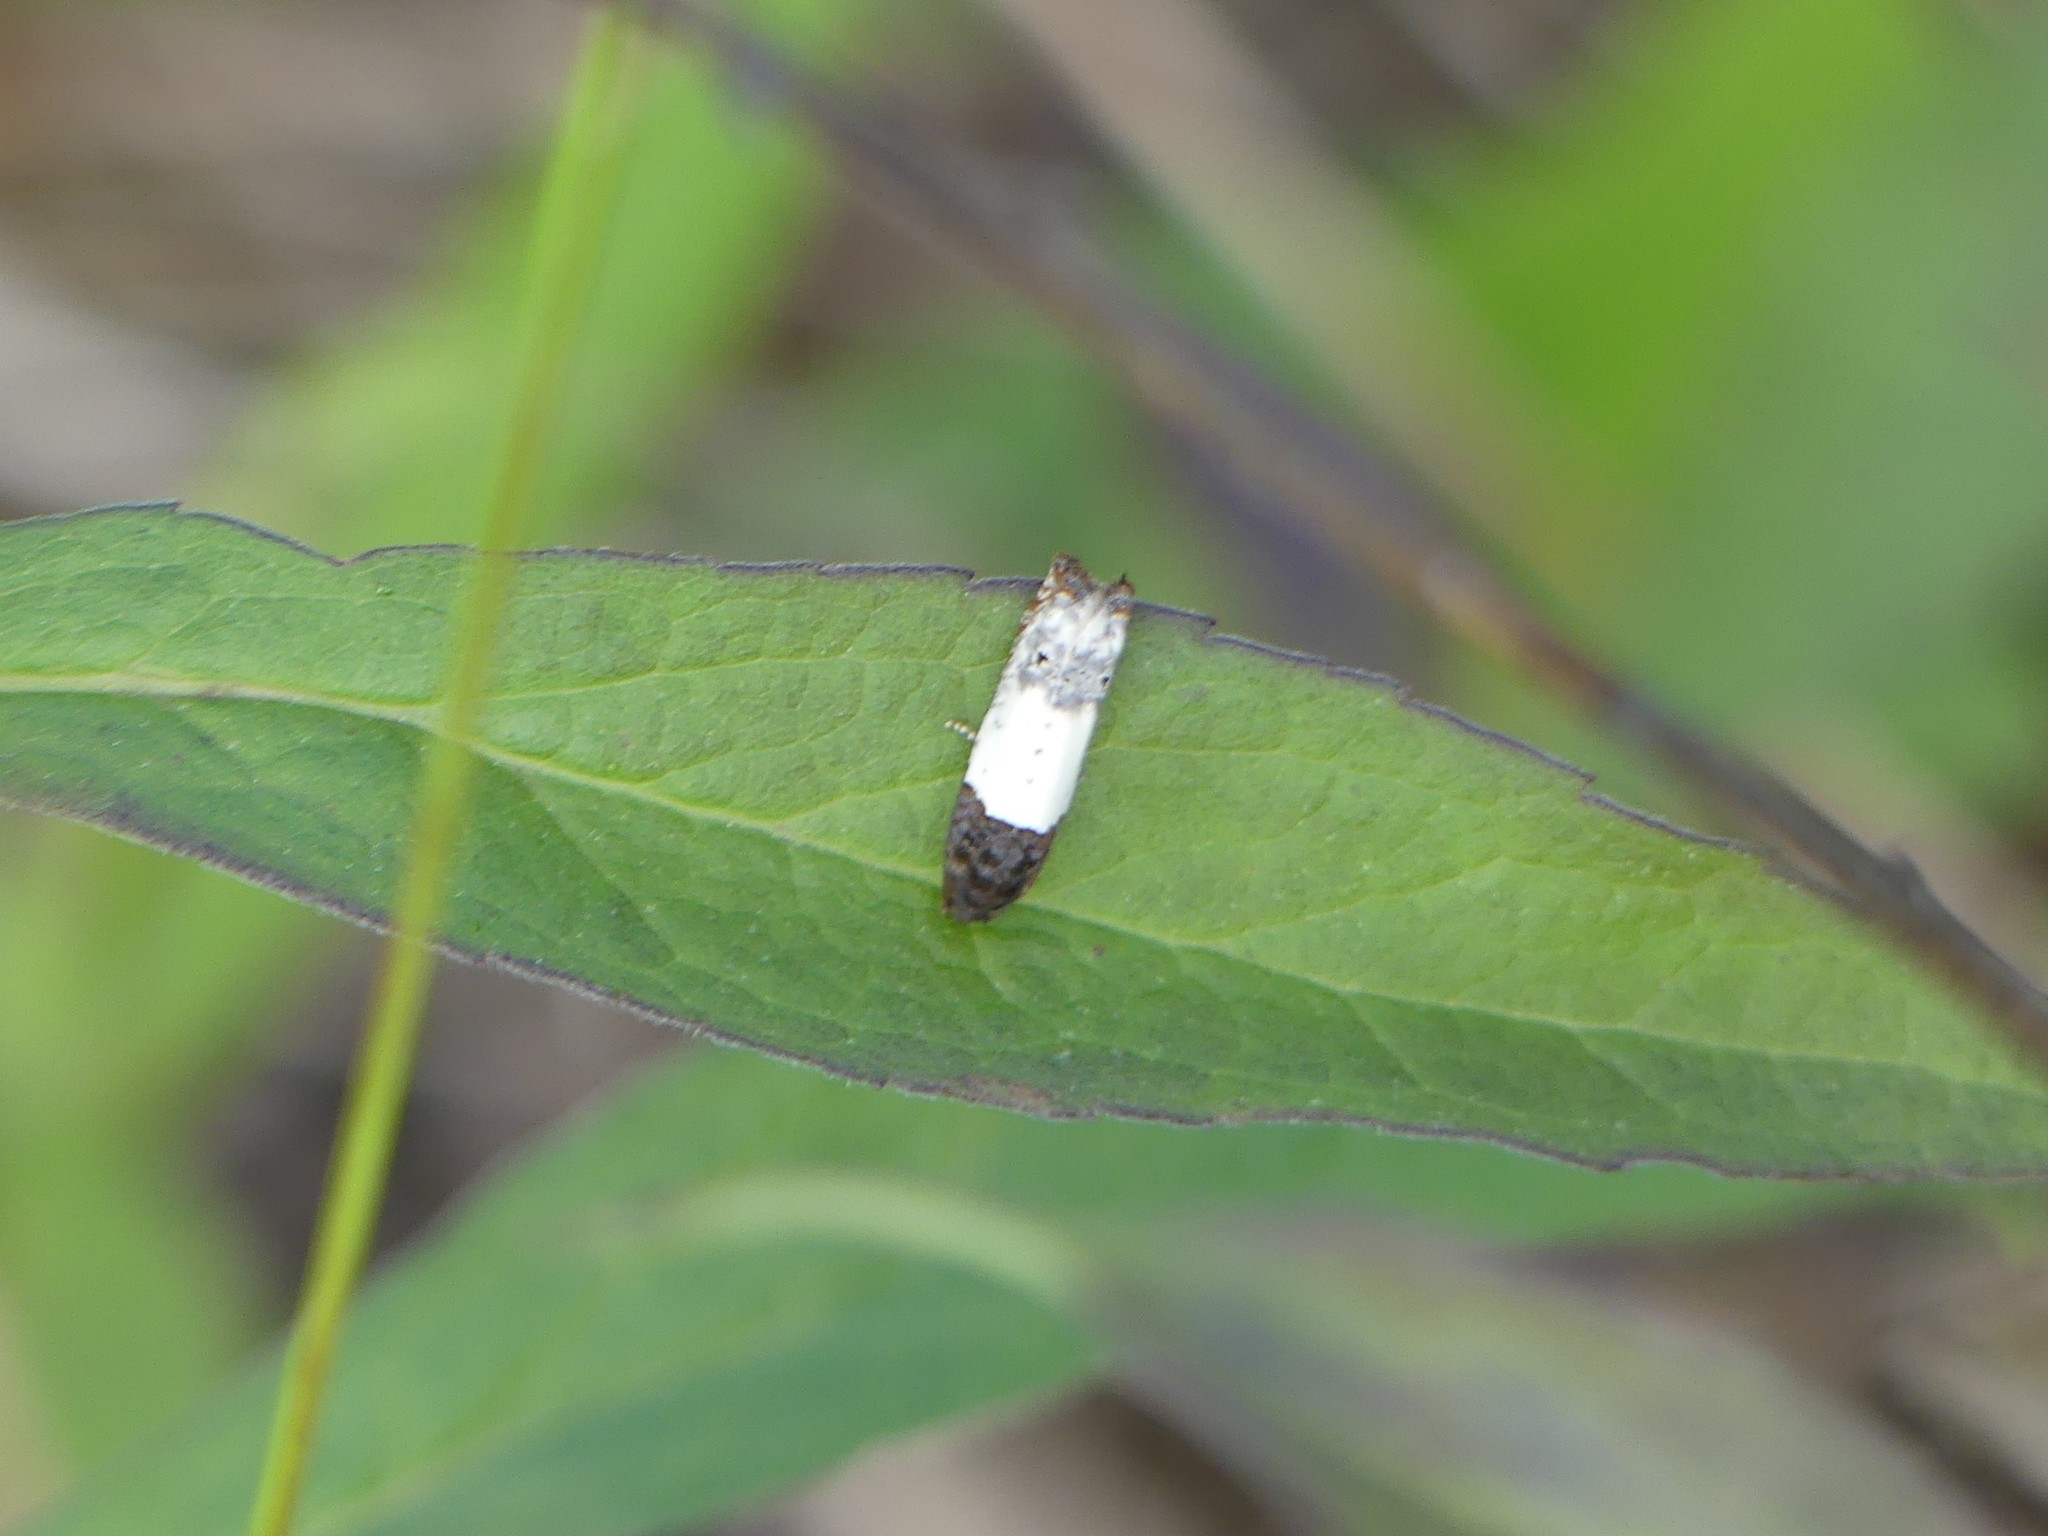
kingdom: Animalia
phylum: Arthropoda
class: Insecta
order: Lepidoptera
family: Tortricidae
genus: Epiblema
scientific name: Epiblema scudderiana
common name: Goldenrod gall moth
